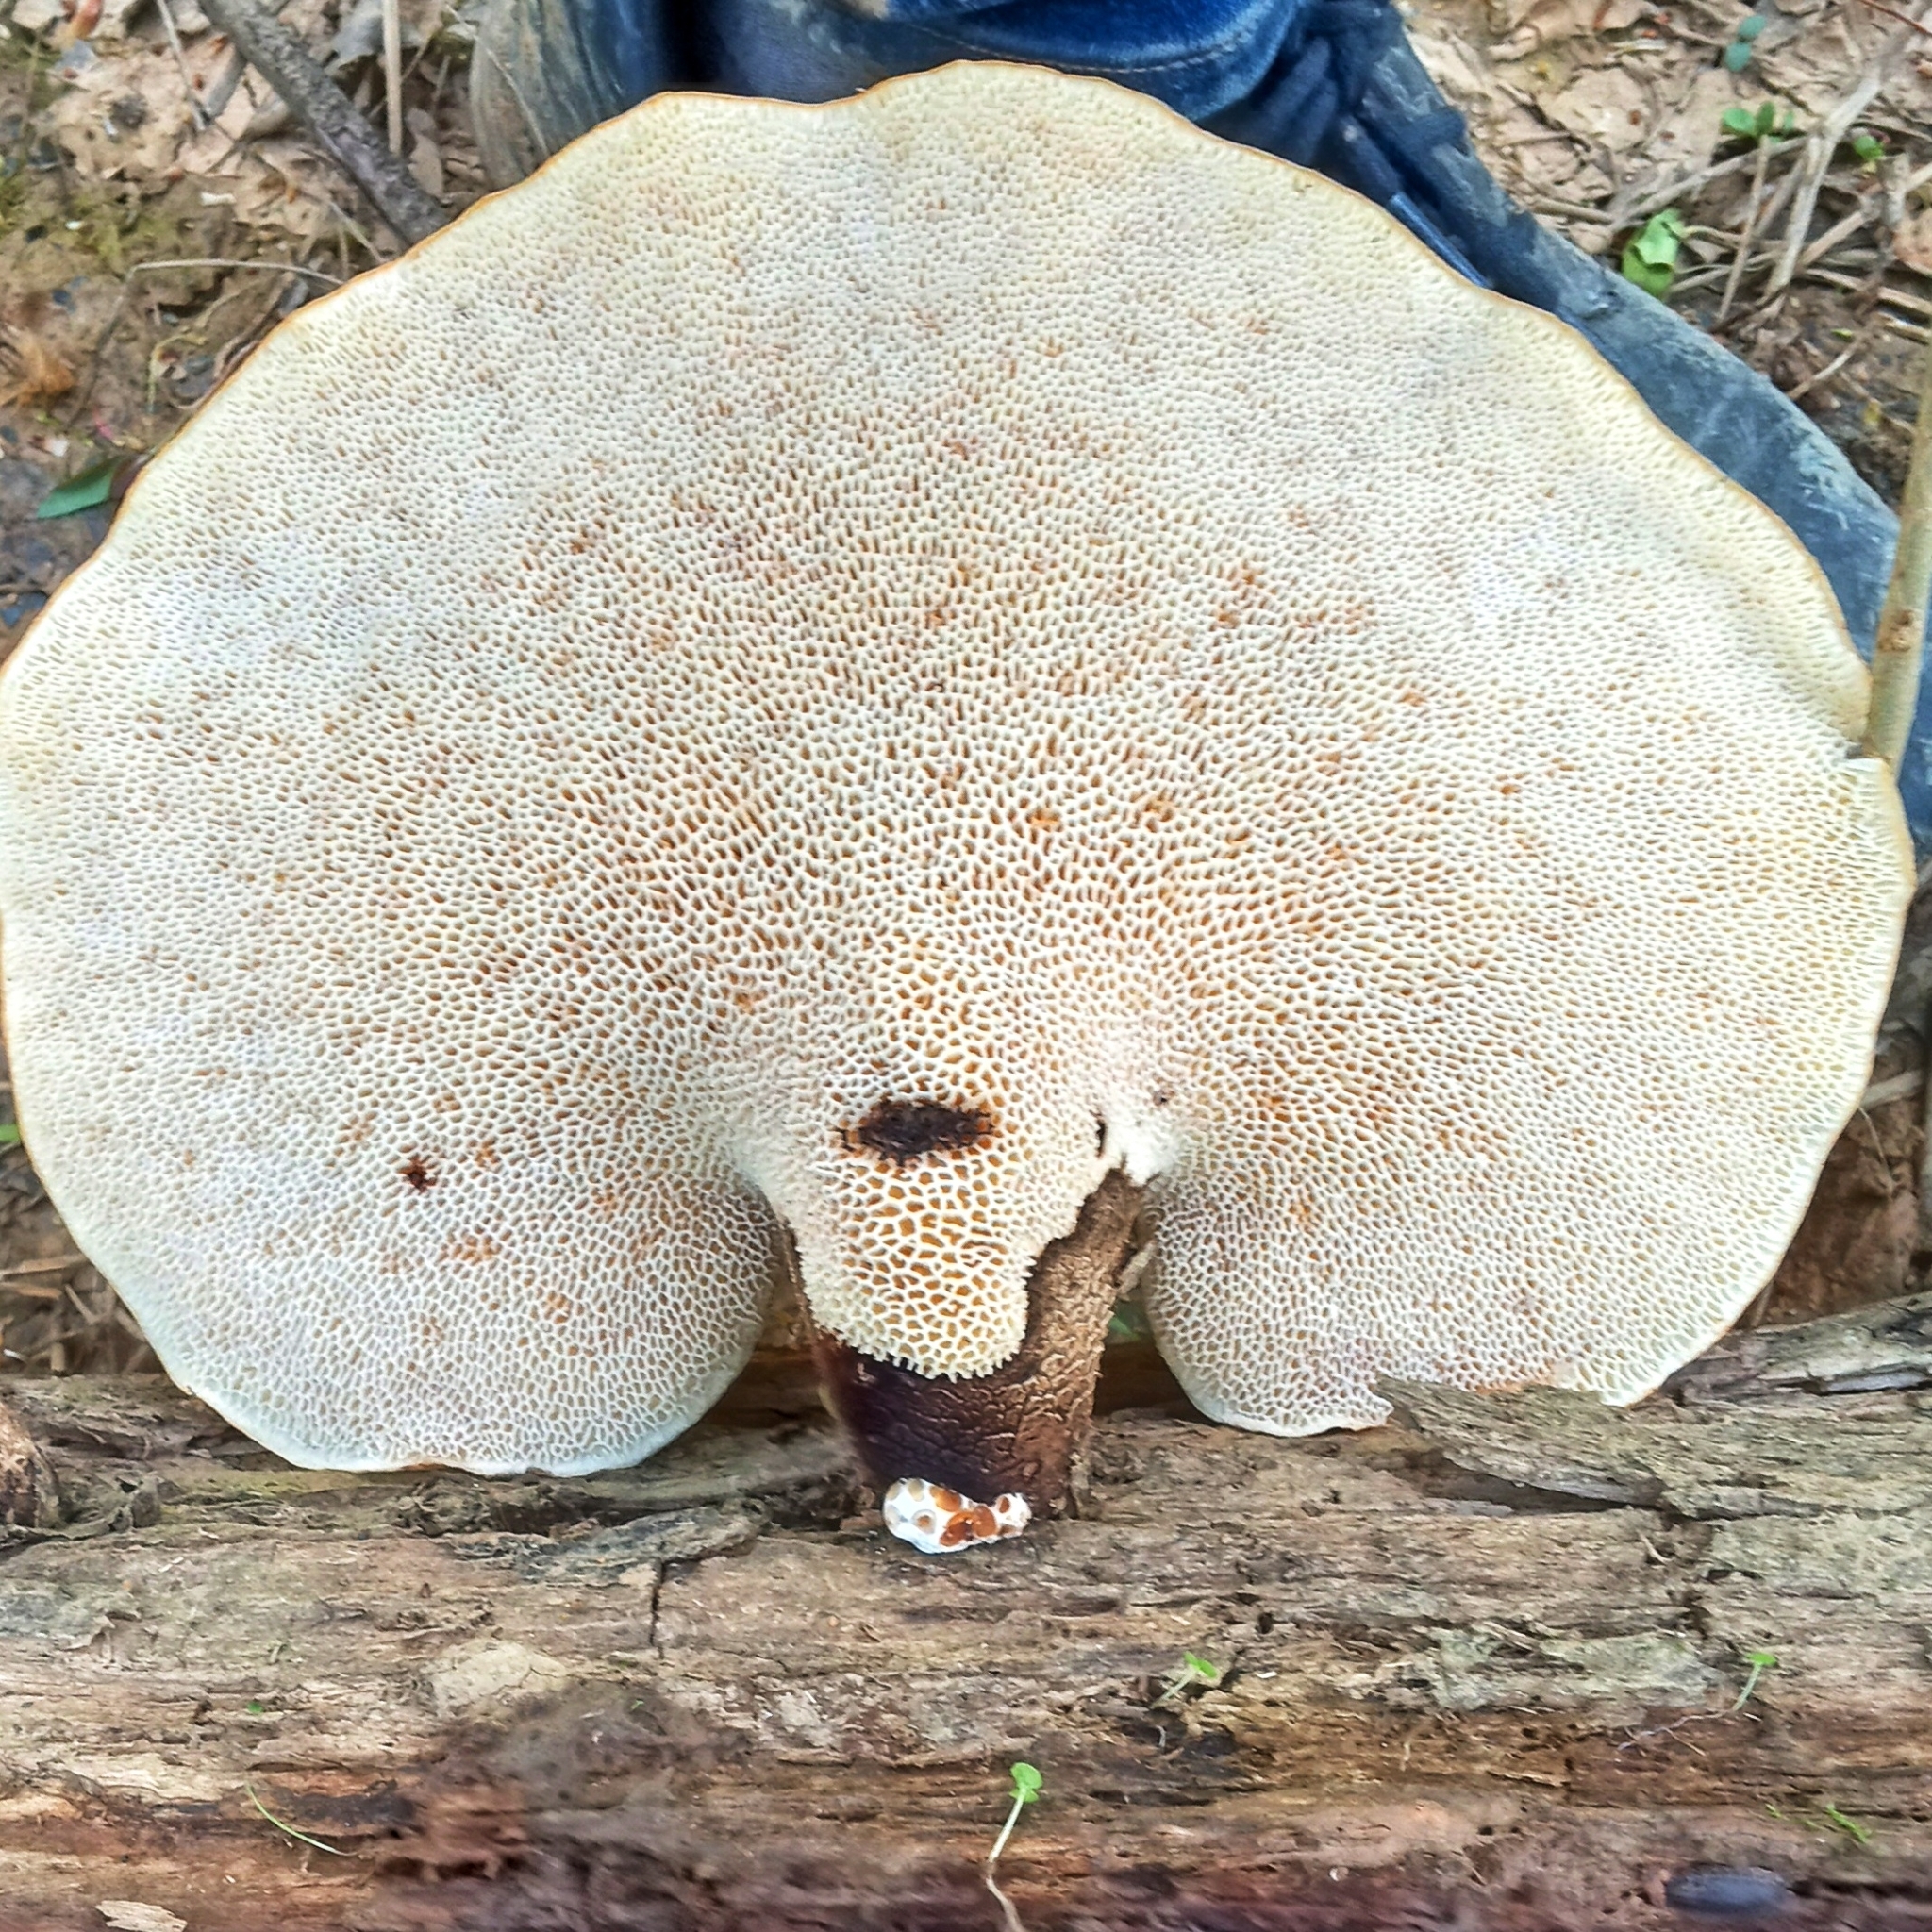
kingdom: Fungi
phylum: Basidiomycota
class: Agaricomycetes
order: Polyporales
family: Polyporaceae
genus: Cerioporus
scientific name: Cerioporus squamosus
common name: Dryad's saddle
